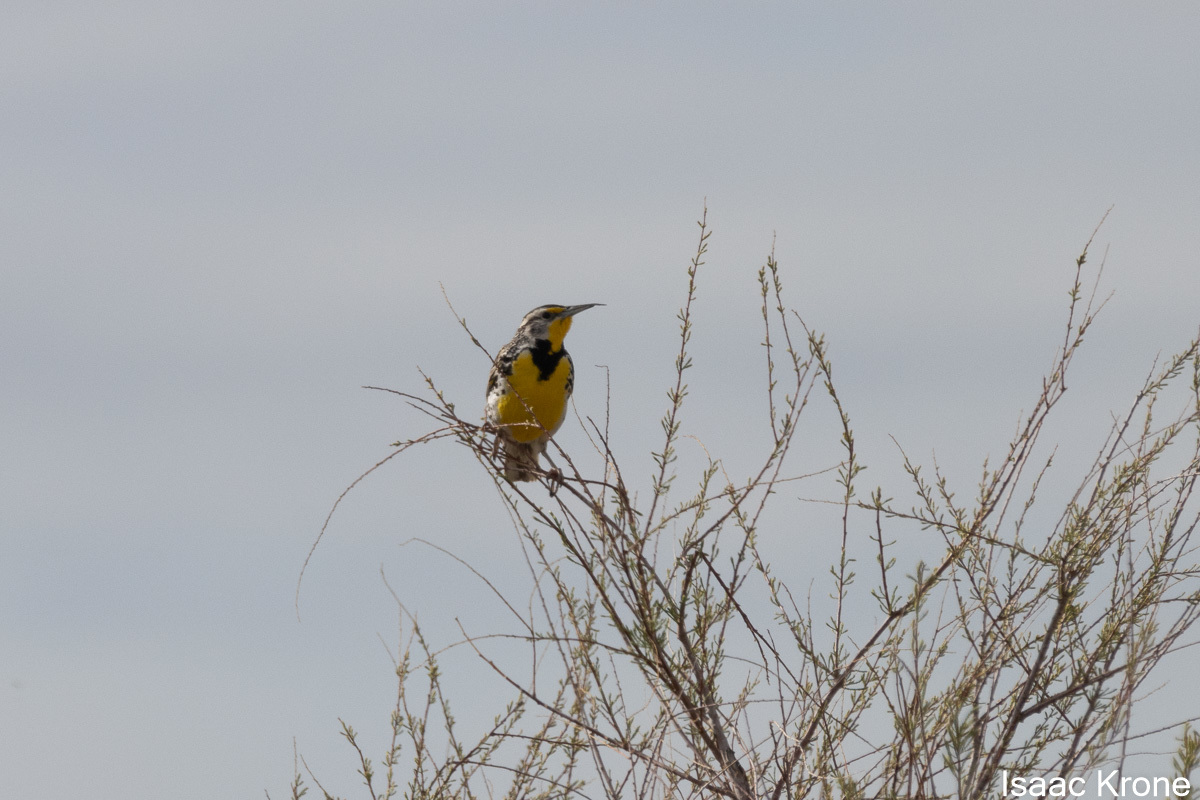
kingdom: Animalia
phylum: Chordata
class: Aves
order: Passeriformes
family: Icteridae
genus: Sturnella
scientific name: Sturnella neglecta
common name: Western meadowlark
